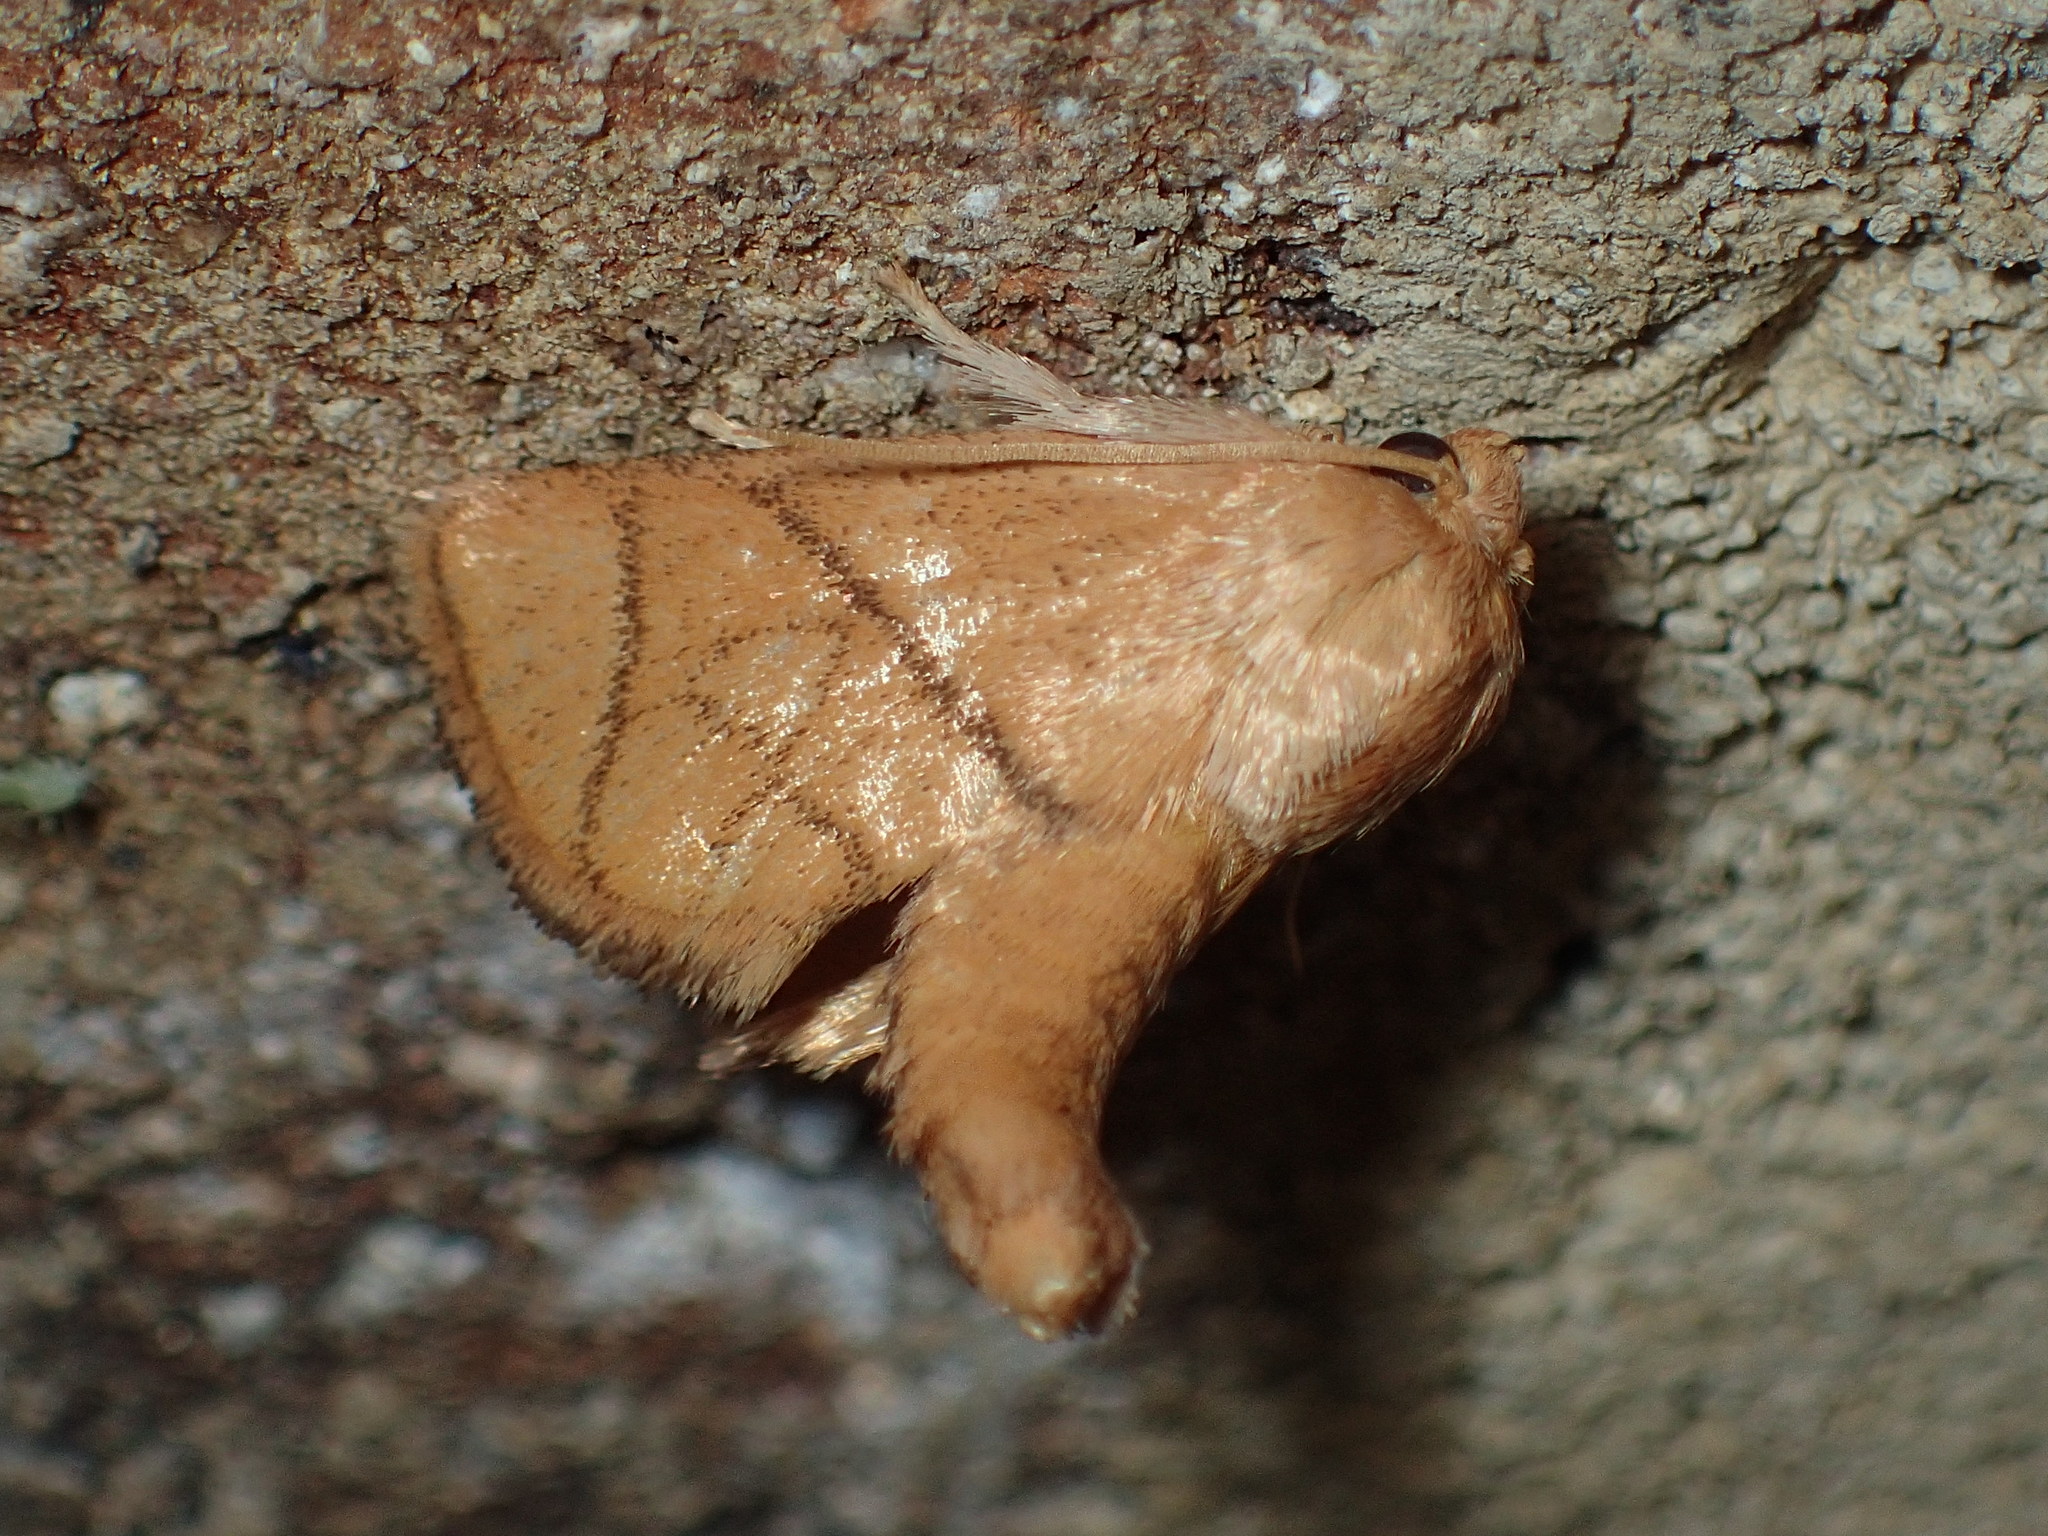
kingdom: Animalia
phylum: Arthropoda
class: Insecta
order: Lepidoptera
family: Limacodidae
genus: Apoda
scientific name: Apoda y-inversa
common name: Yellow-collared slug moth
